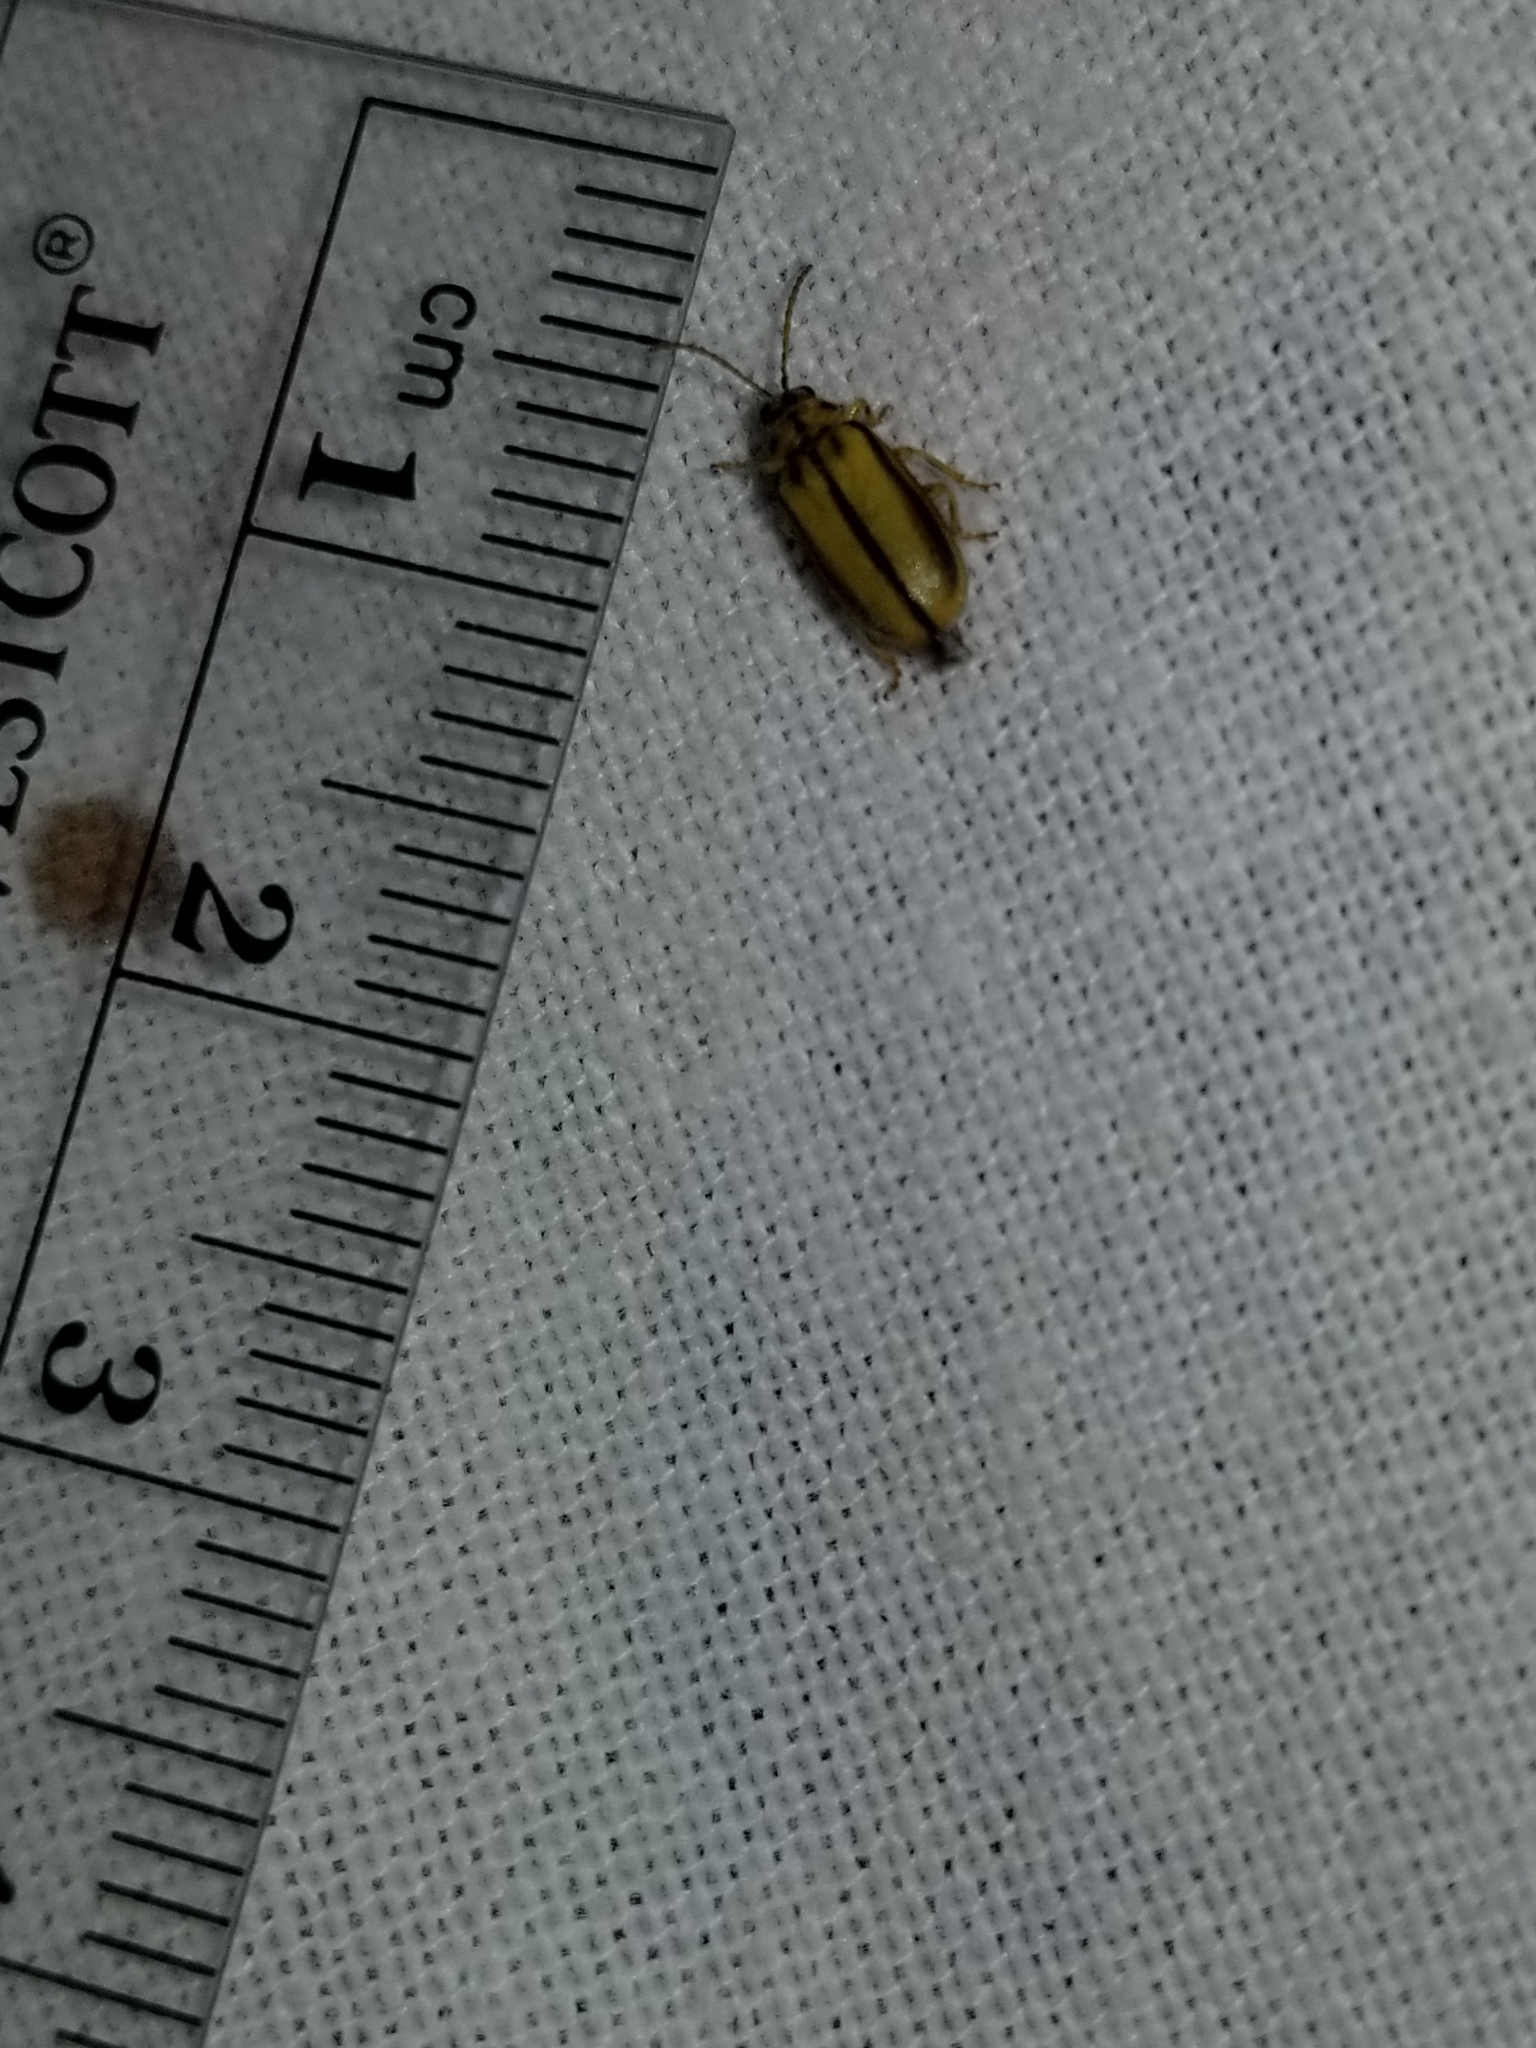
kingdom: Animalia
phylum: Arthropoda
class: Insecta
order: Coleoptera
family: Chrysomelidae
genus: Xanthogaleruca
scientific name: Xanthogaleruca luteola
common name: Elm leaf beetle
